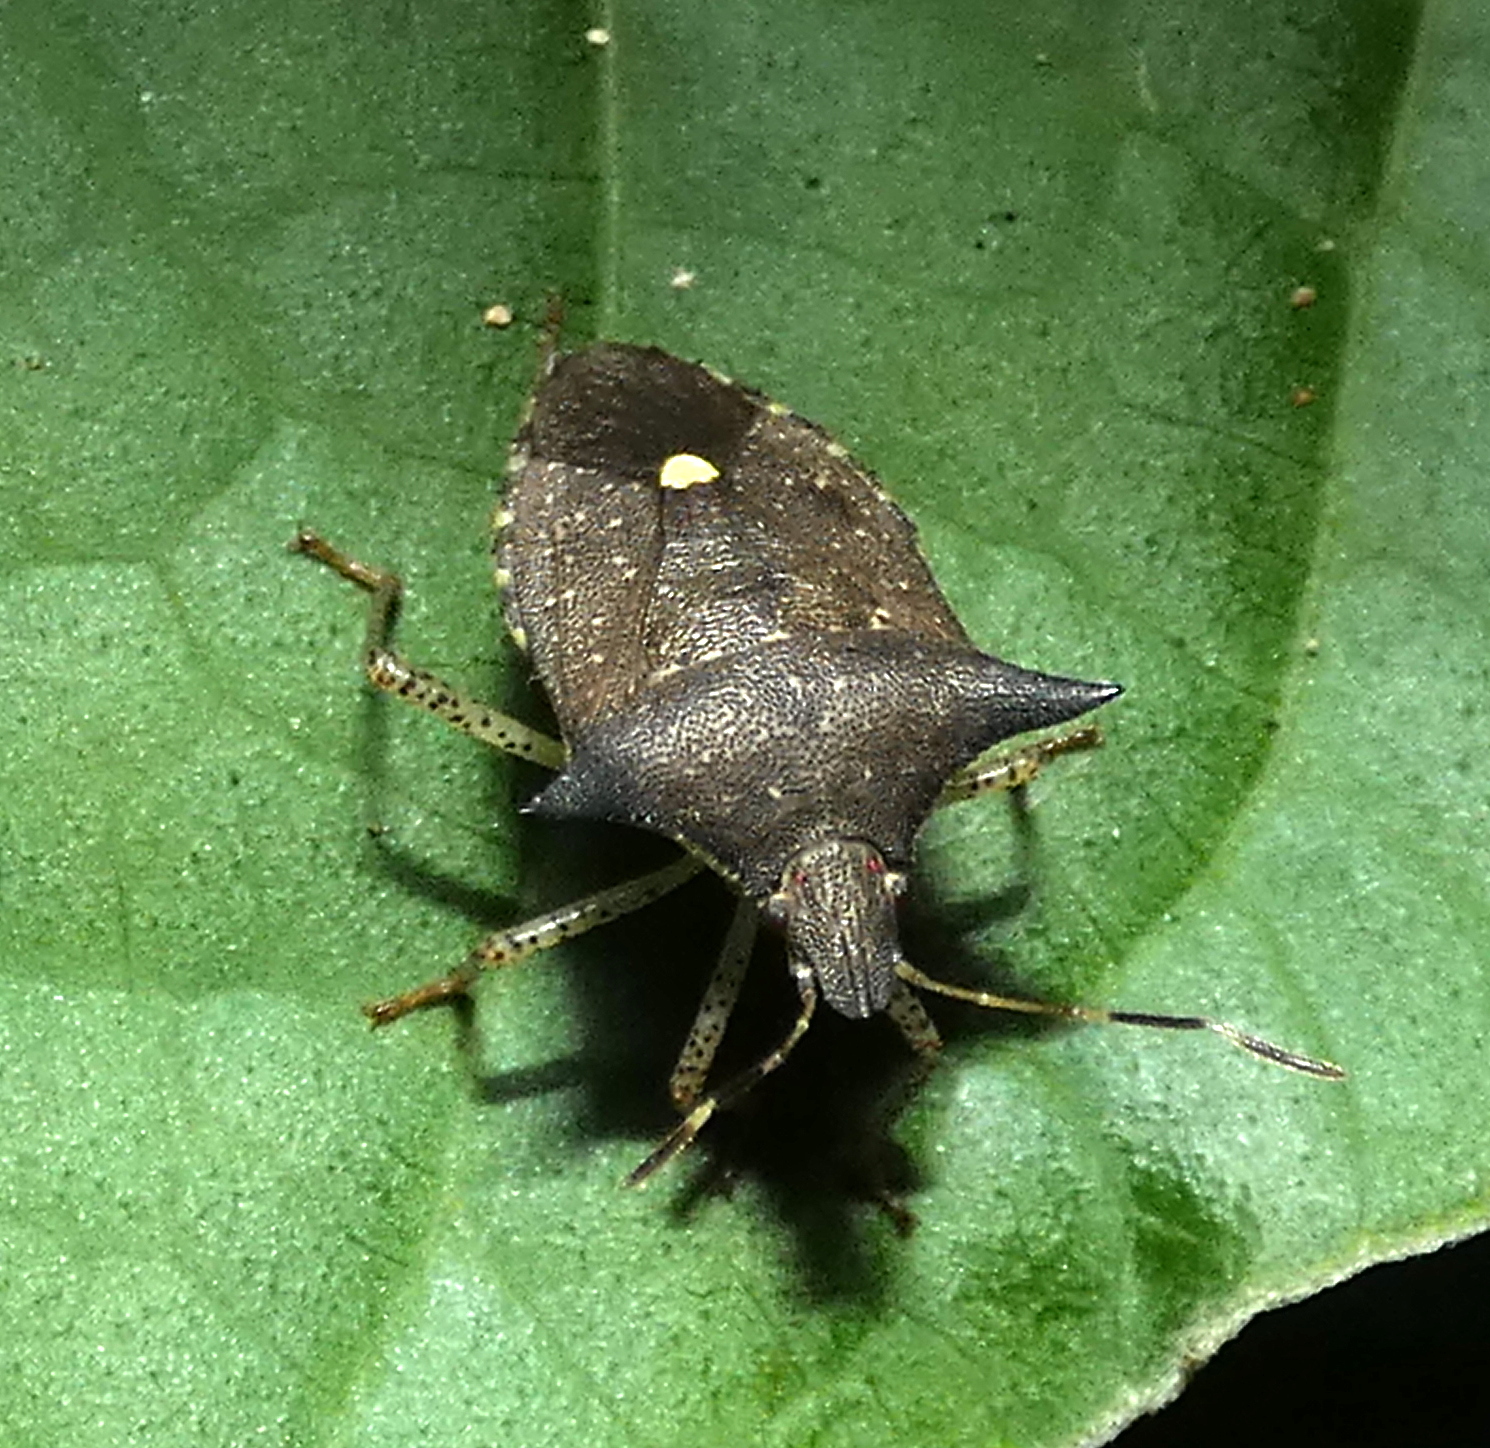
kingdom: Animalia
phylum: Arthropoda
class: Insecta
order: Hemiptera
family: Pentatomidae
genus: Proxys
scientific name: Proxys albopunctulatus
